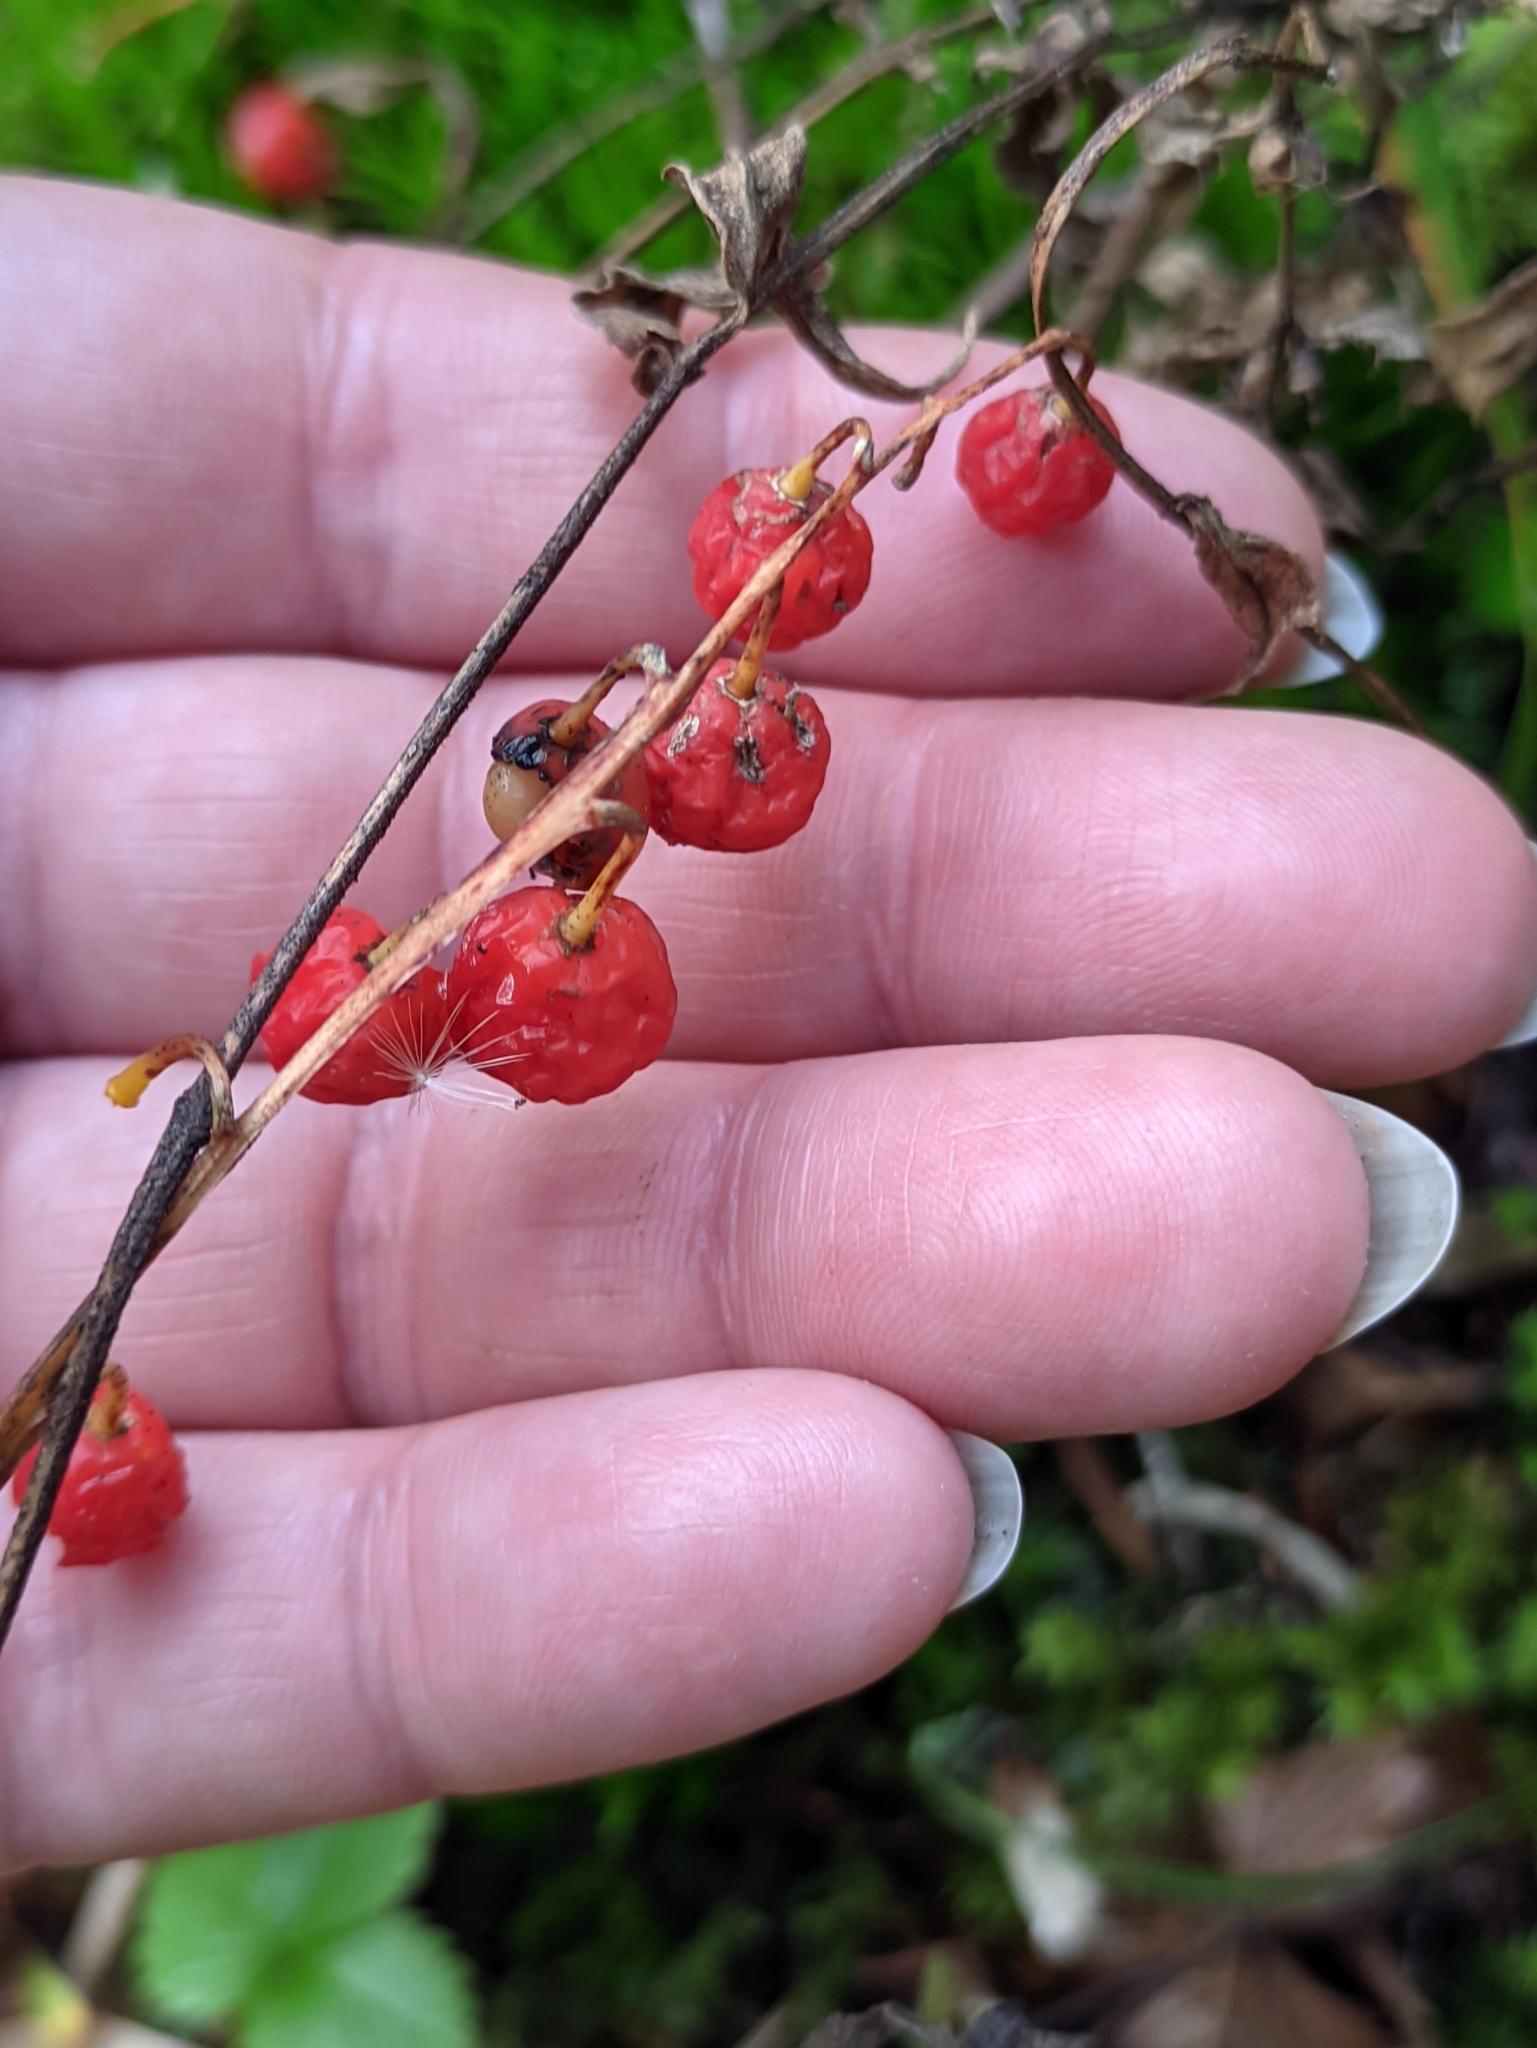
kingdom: Plantae
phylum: Tracheophyta
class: Liliopsida
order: Asparagales
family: Asparagaceae
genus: Convallaria
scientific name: Convallaria majalis
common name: Lily-of-the-valley
